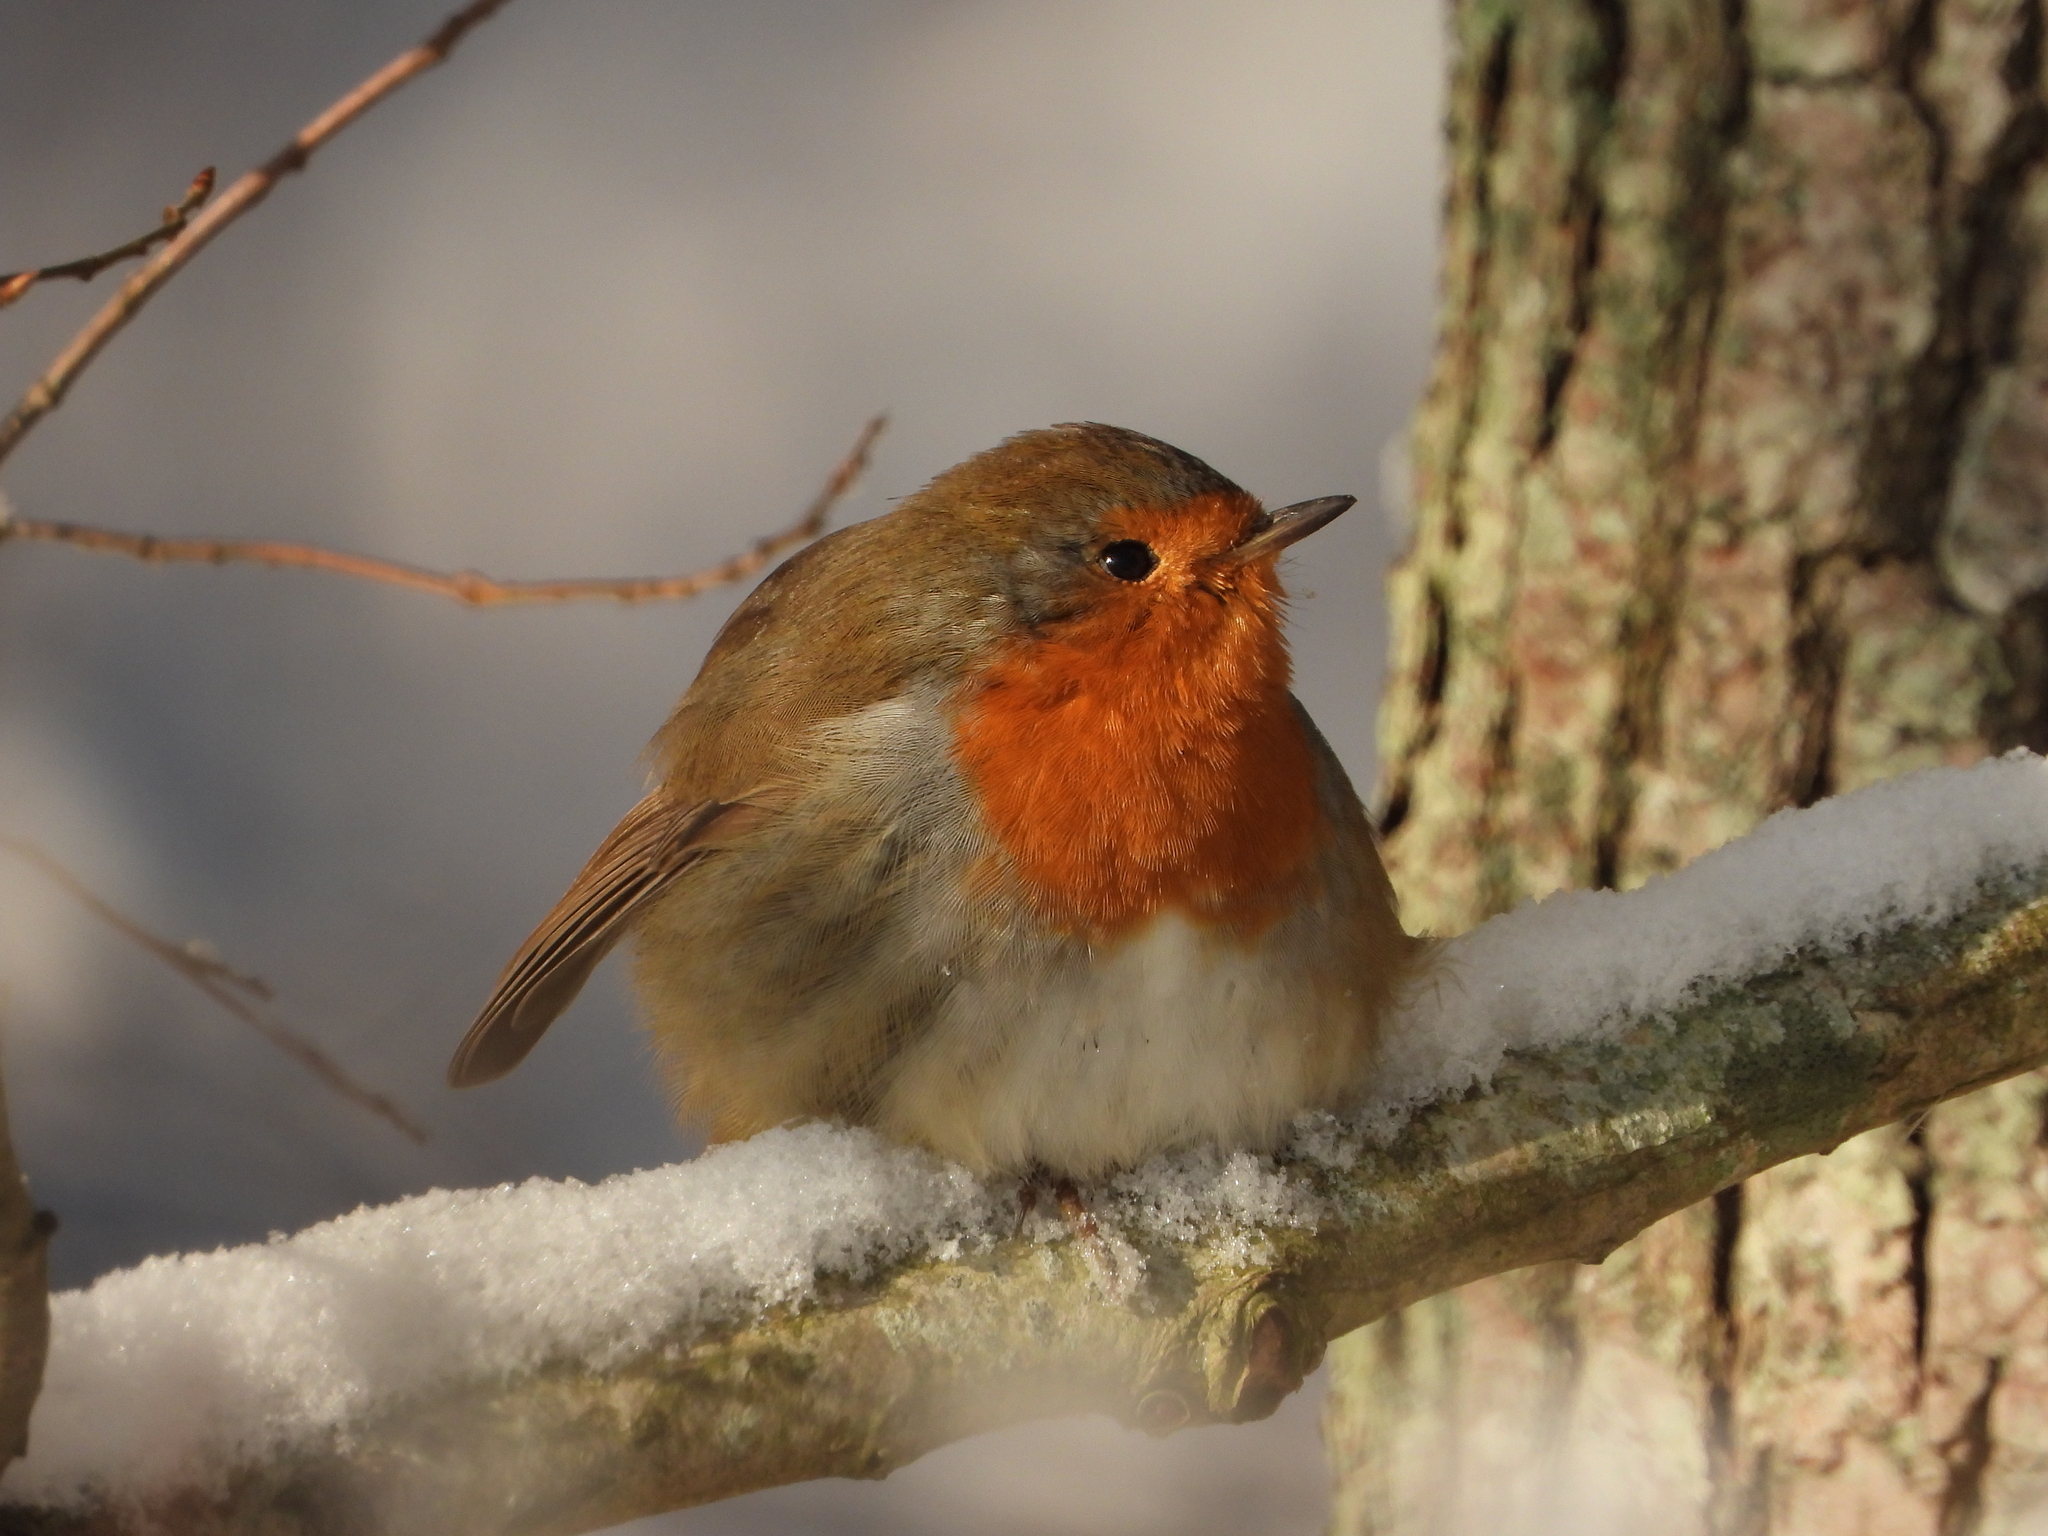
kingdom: Animalia
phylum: Chordata
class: Aves
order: Passeriformes
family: Muscicapidae
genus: Erithacus
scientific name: Erithacus rubecula
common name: European robin
